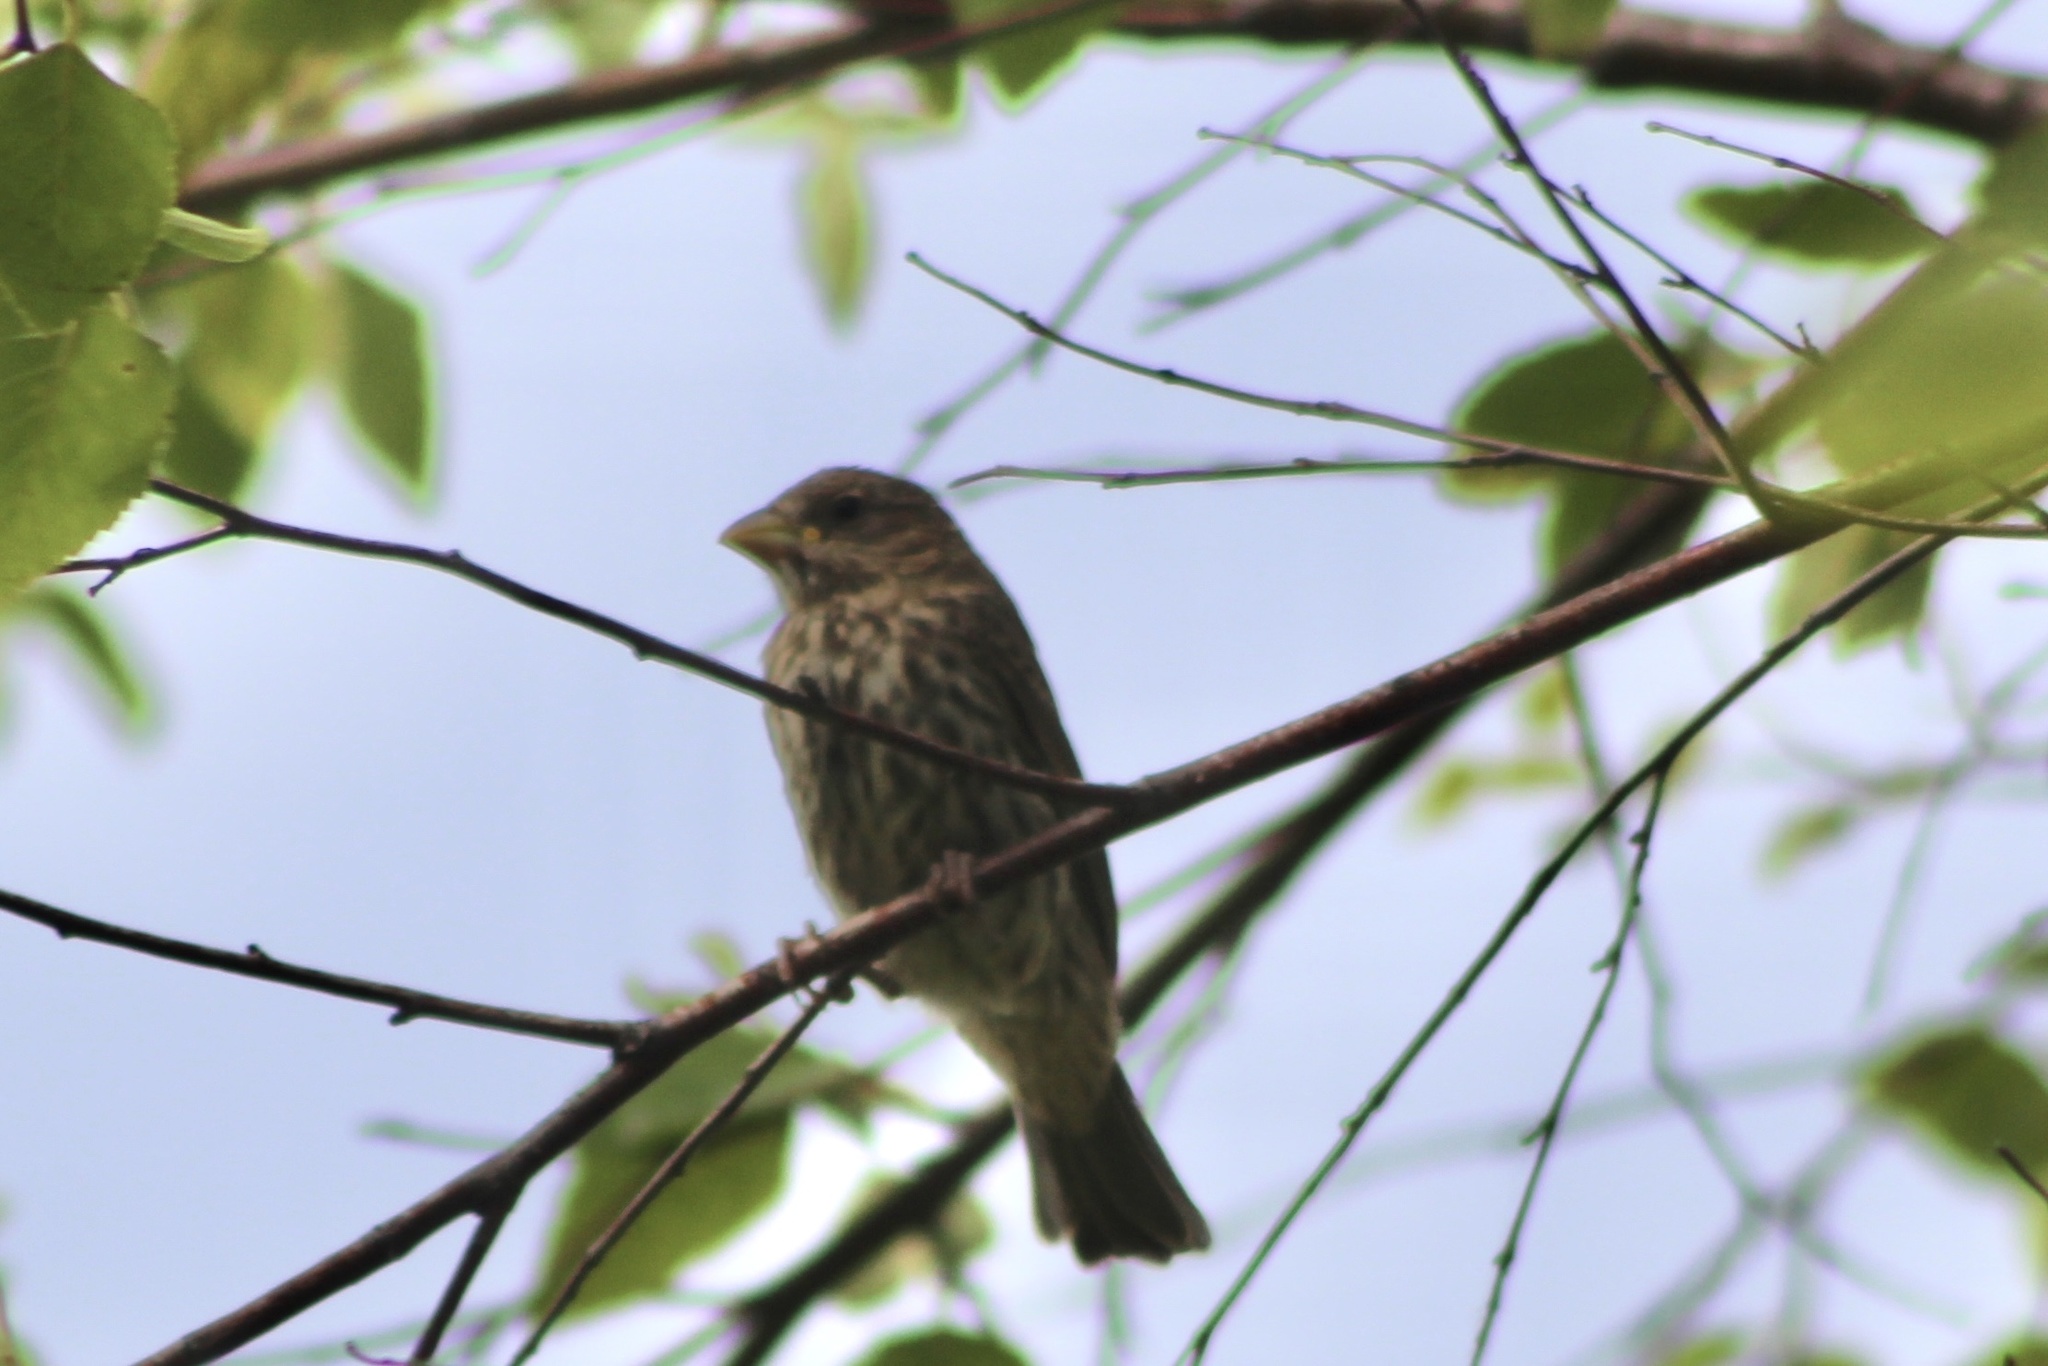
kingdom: Animalia
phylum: Chordata
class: Aves
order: Passeriformes
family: Fringillidae
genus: Haemorhous
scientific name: Haemorhous mexicanus
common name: House finch
